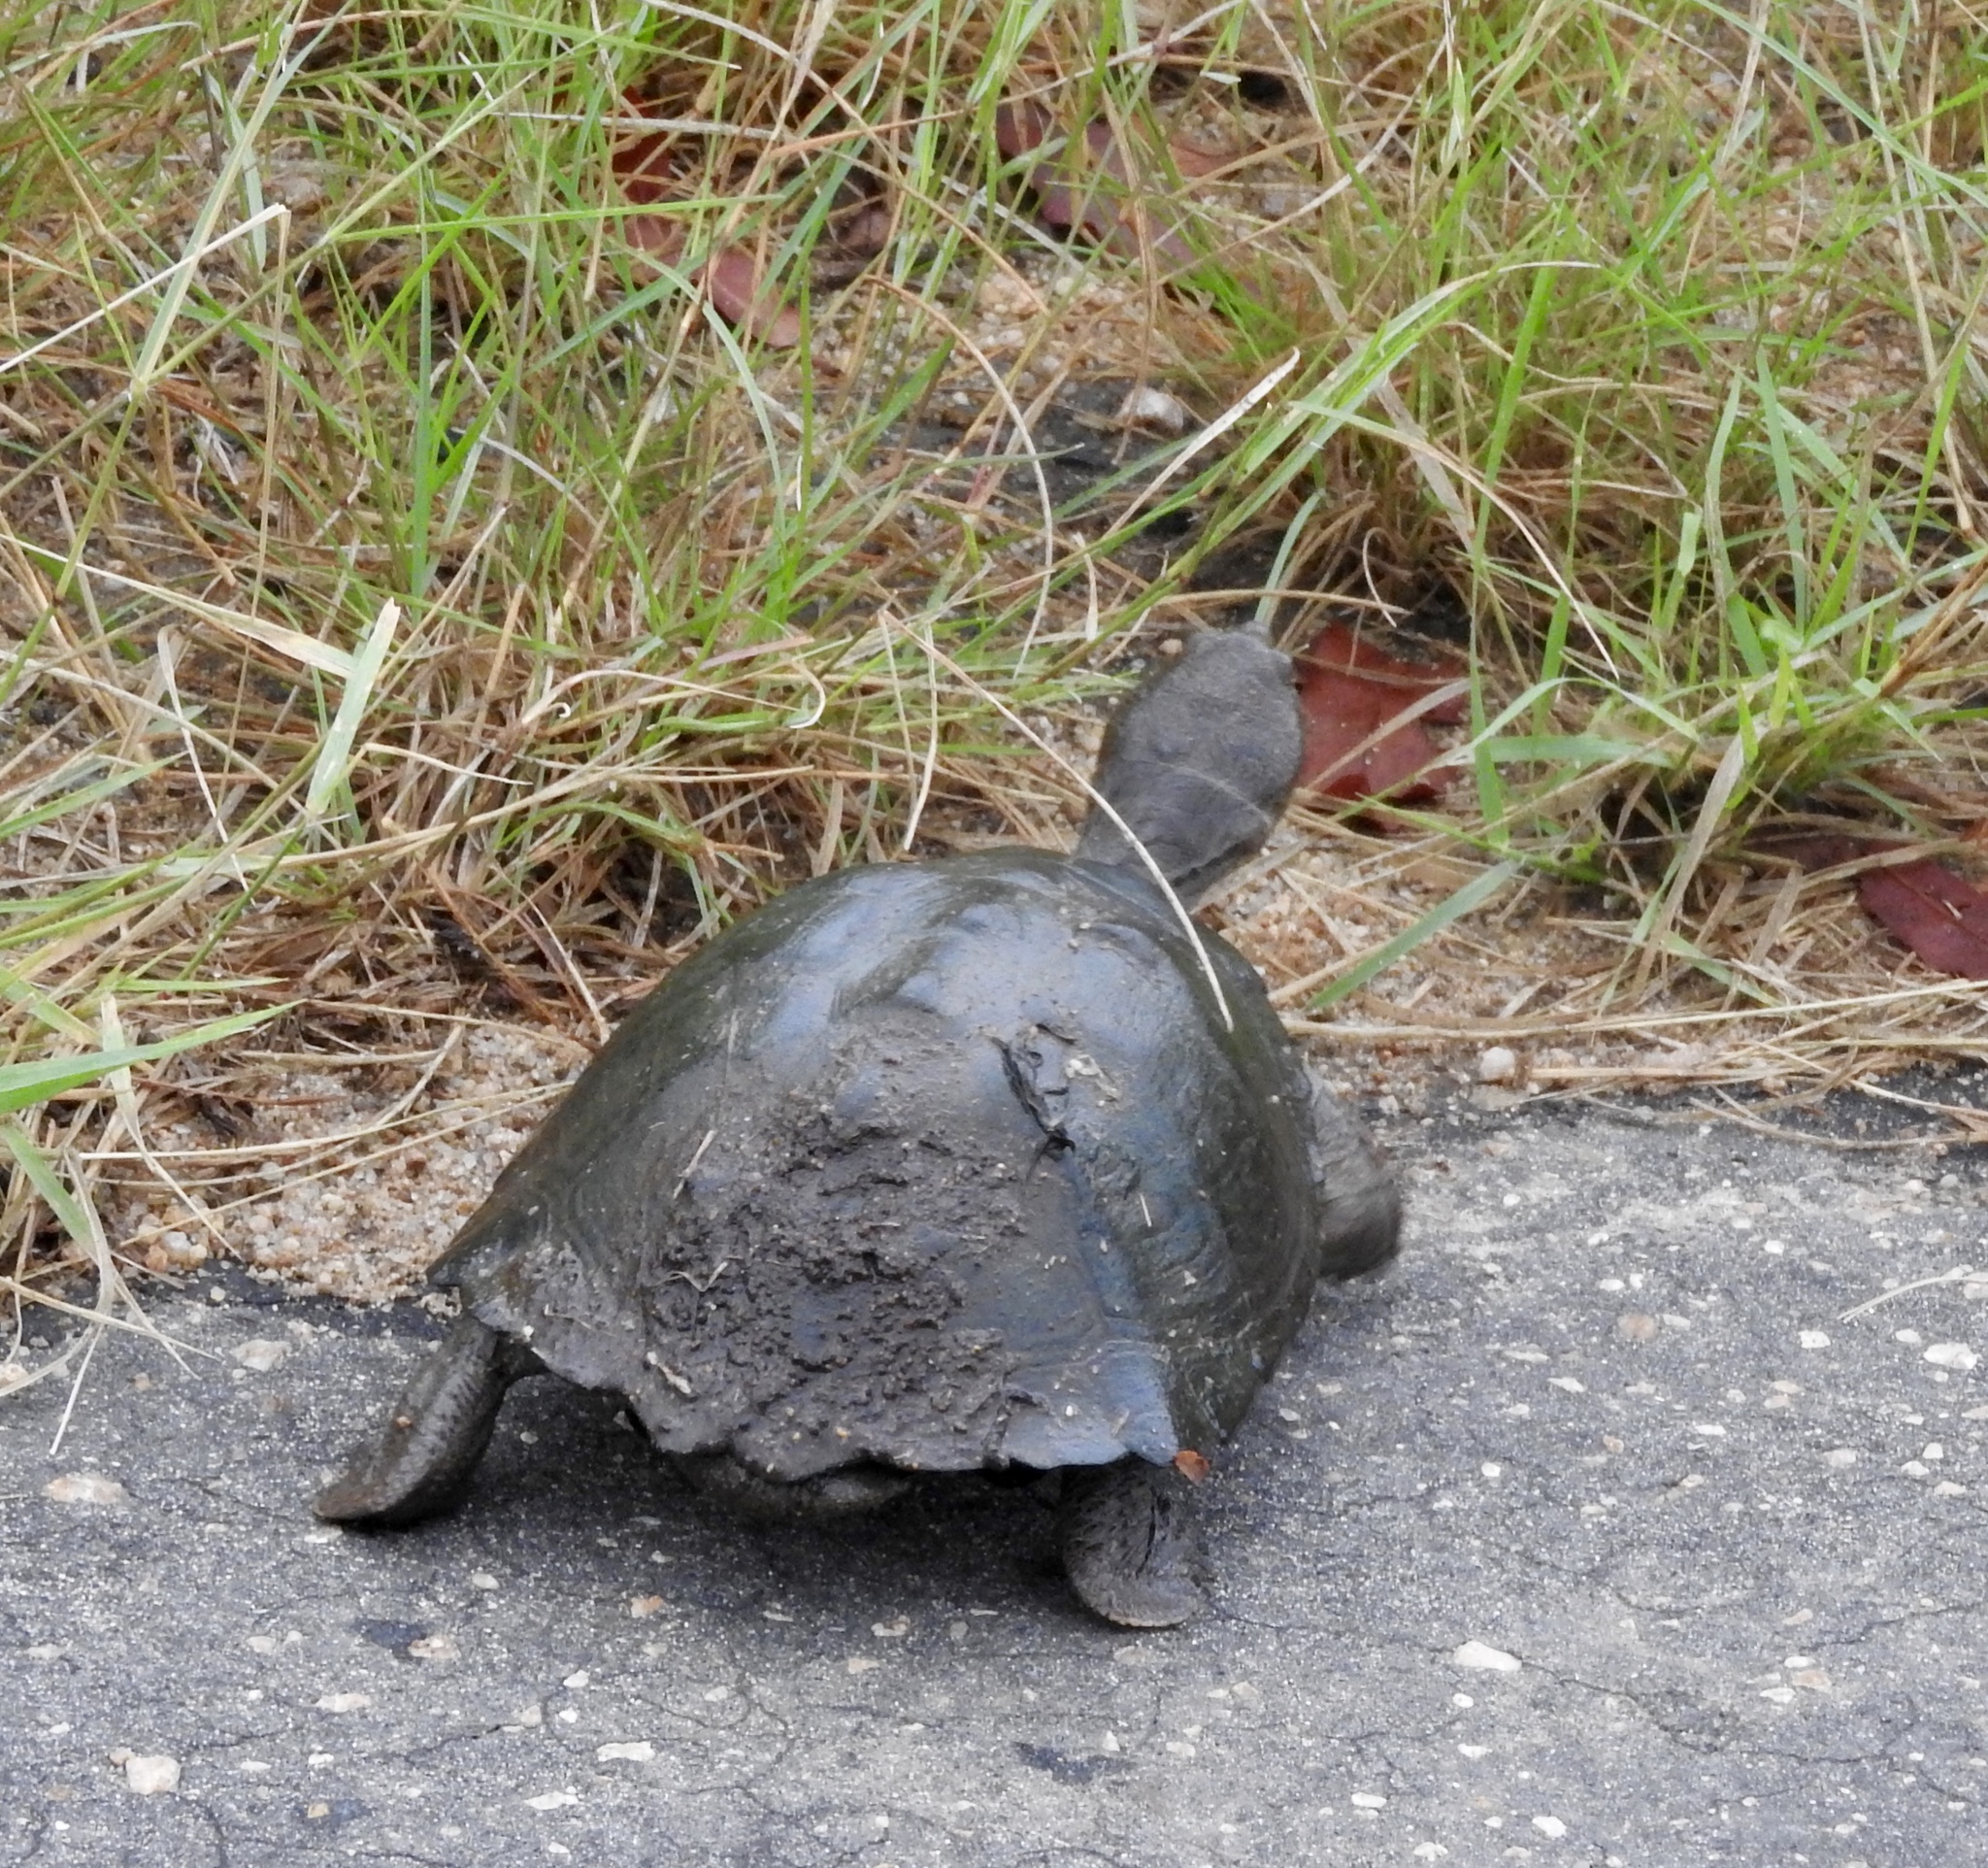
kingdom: Animalia
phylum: Chordata
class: Testudines
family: Pelomedusidae
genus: Pelusios
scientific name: Pelusios sinuatus
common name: Serrated hinged terrapin
